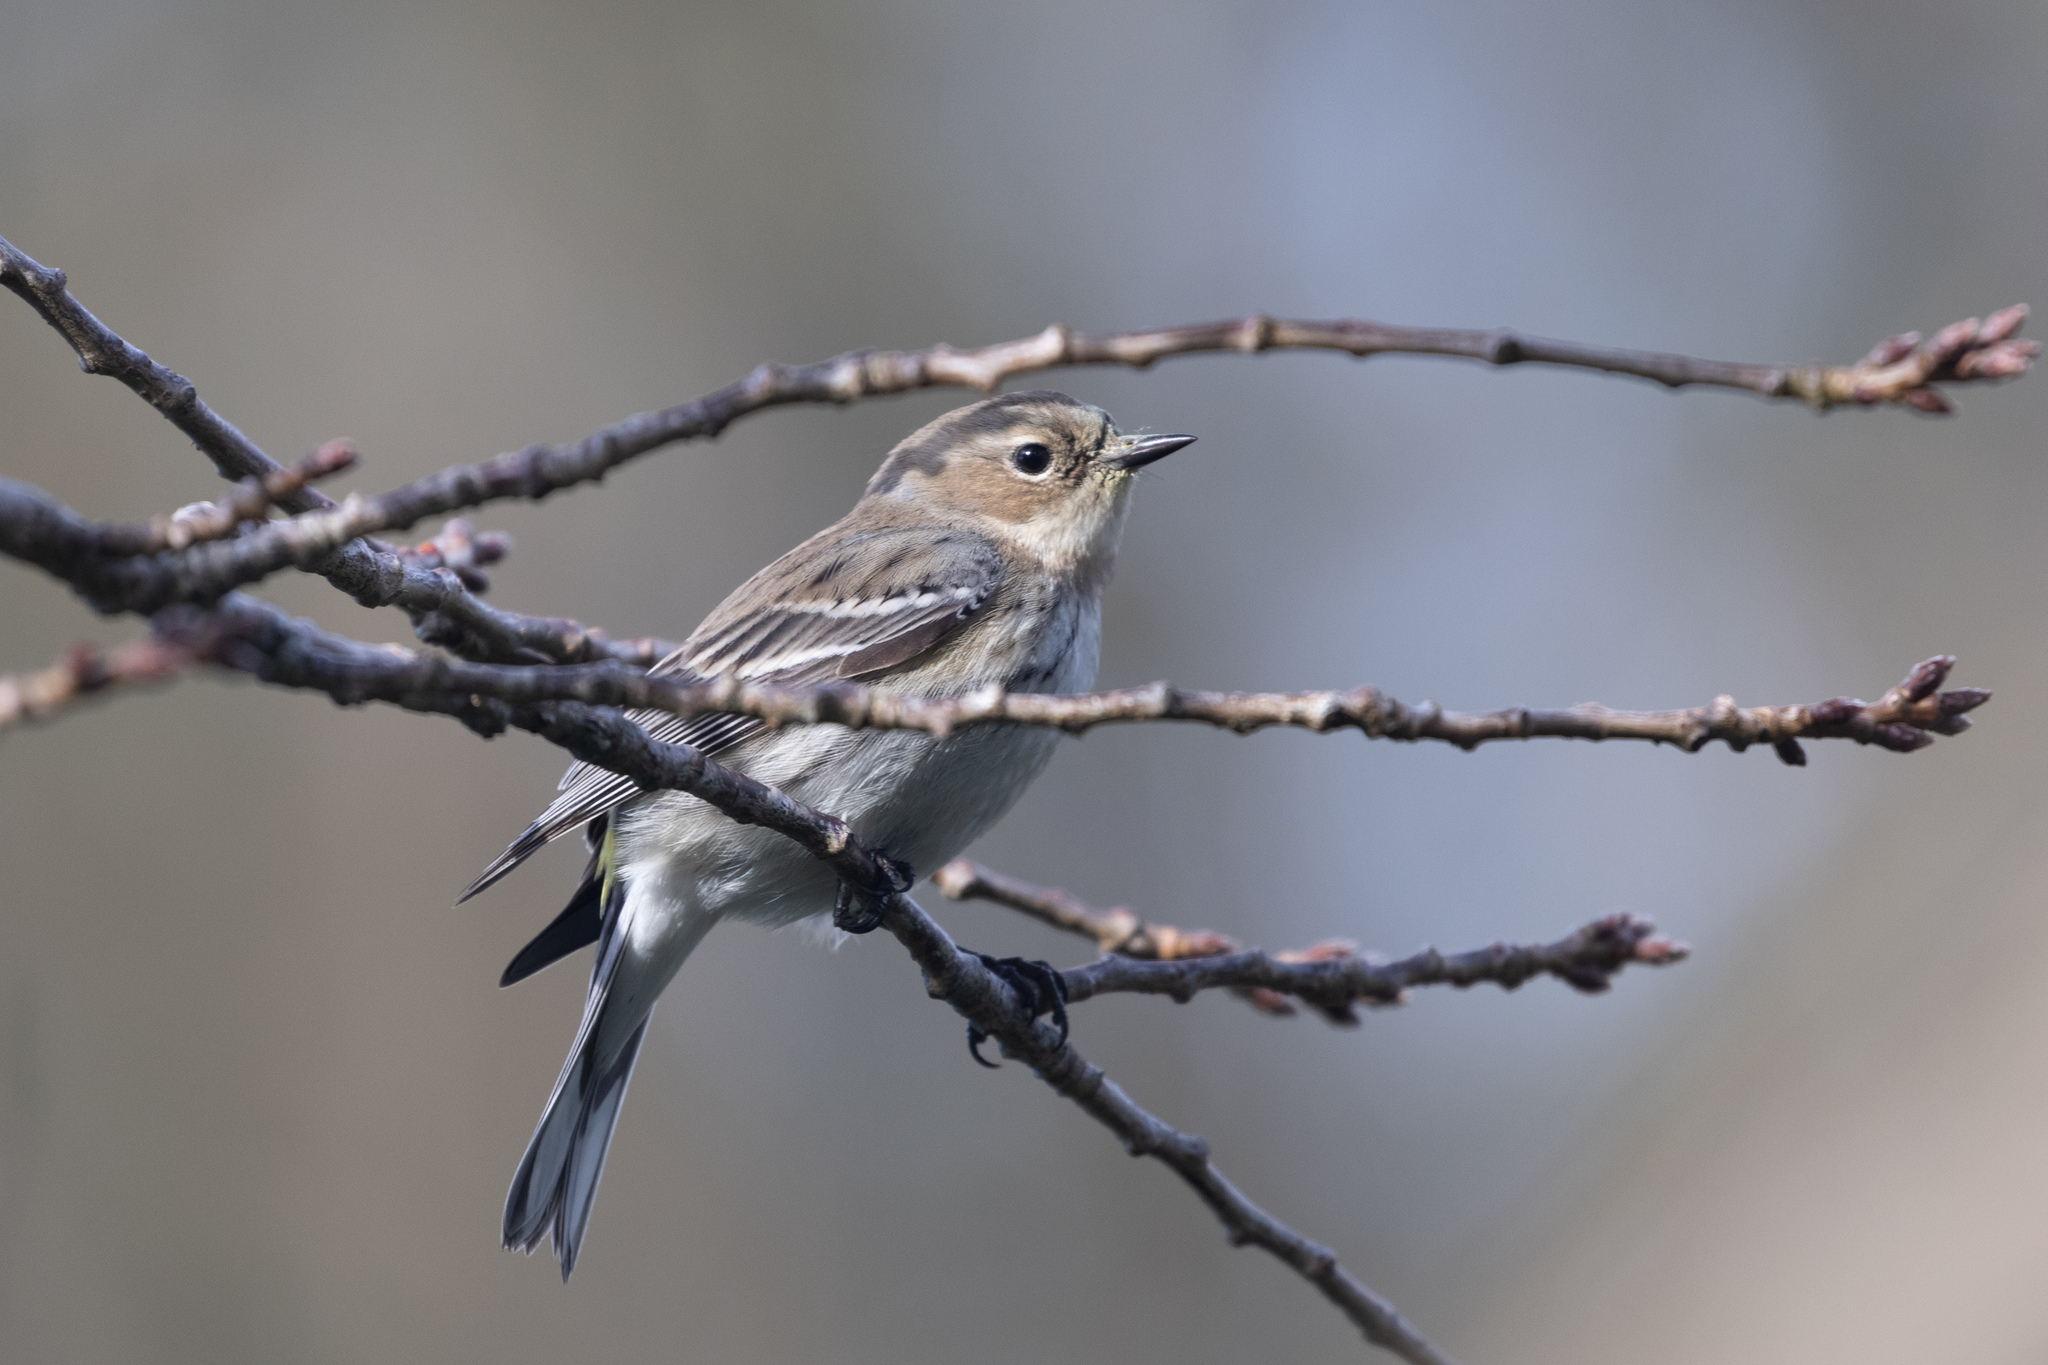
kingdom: Animalia
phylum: Chordata
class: Aves
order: Passeriformes
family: Parulidae
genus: Setophaga
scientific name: Setophaga coronata
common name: Myrtle warbler
